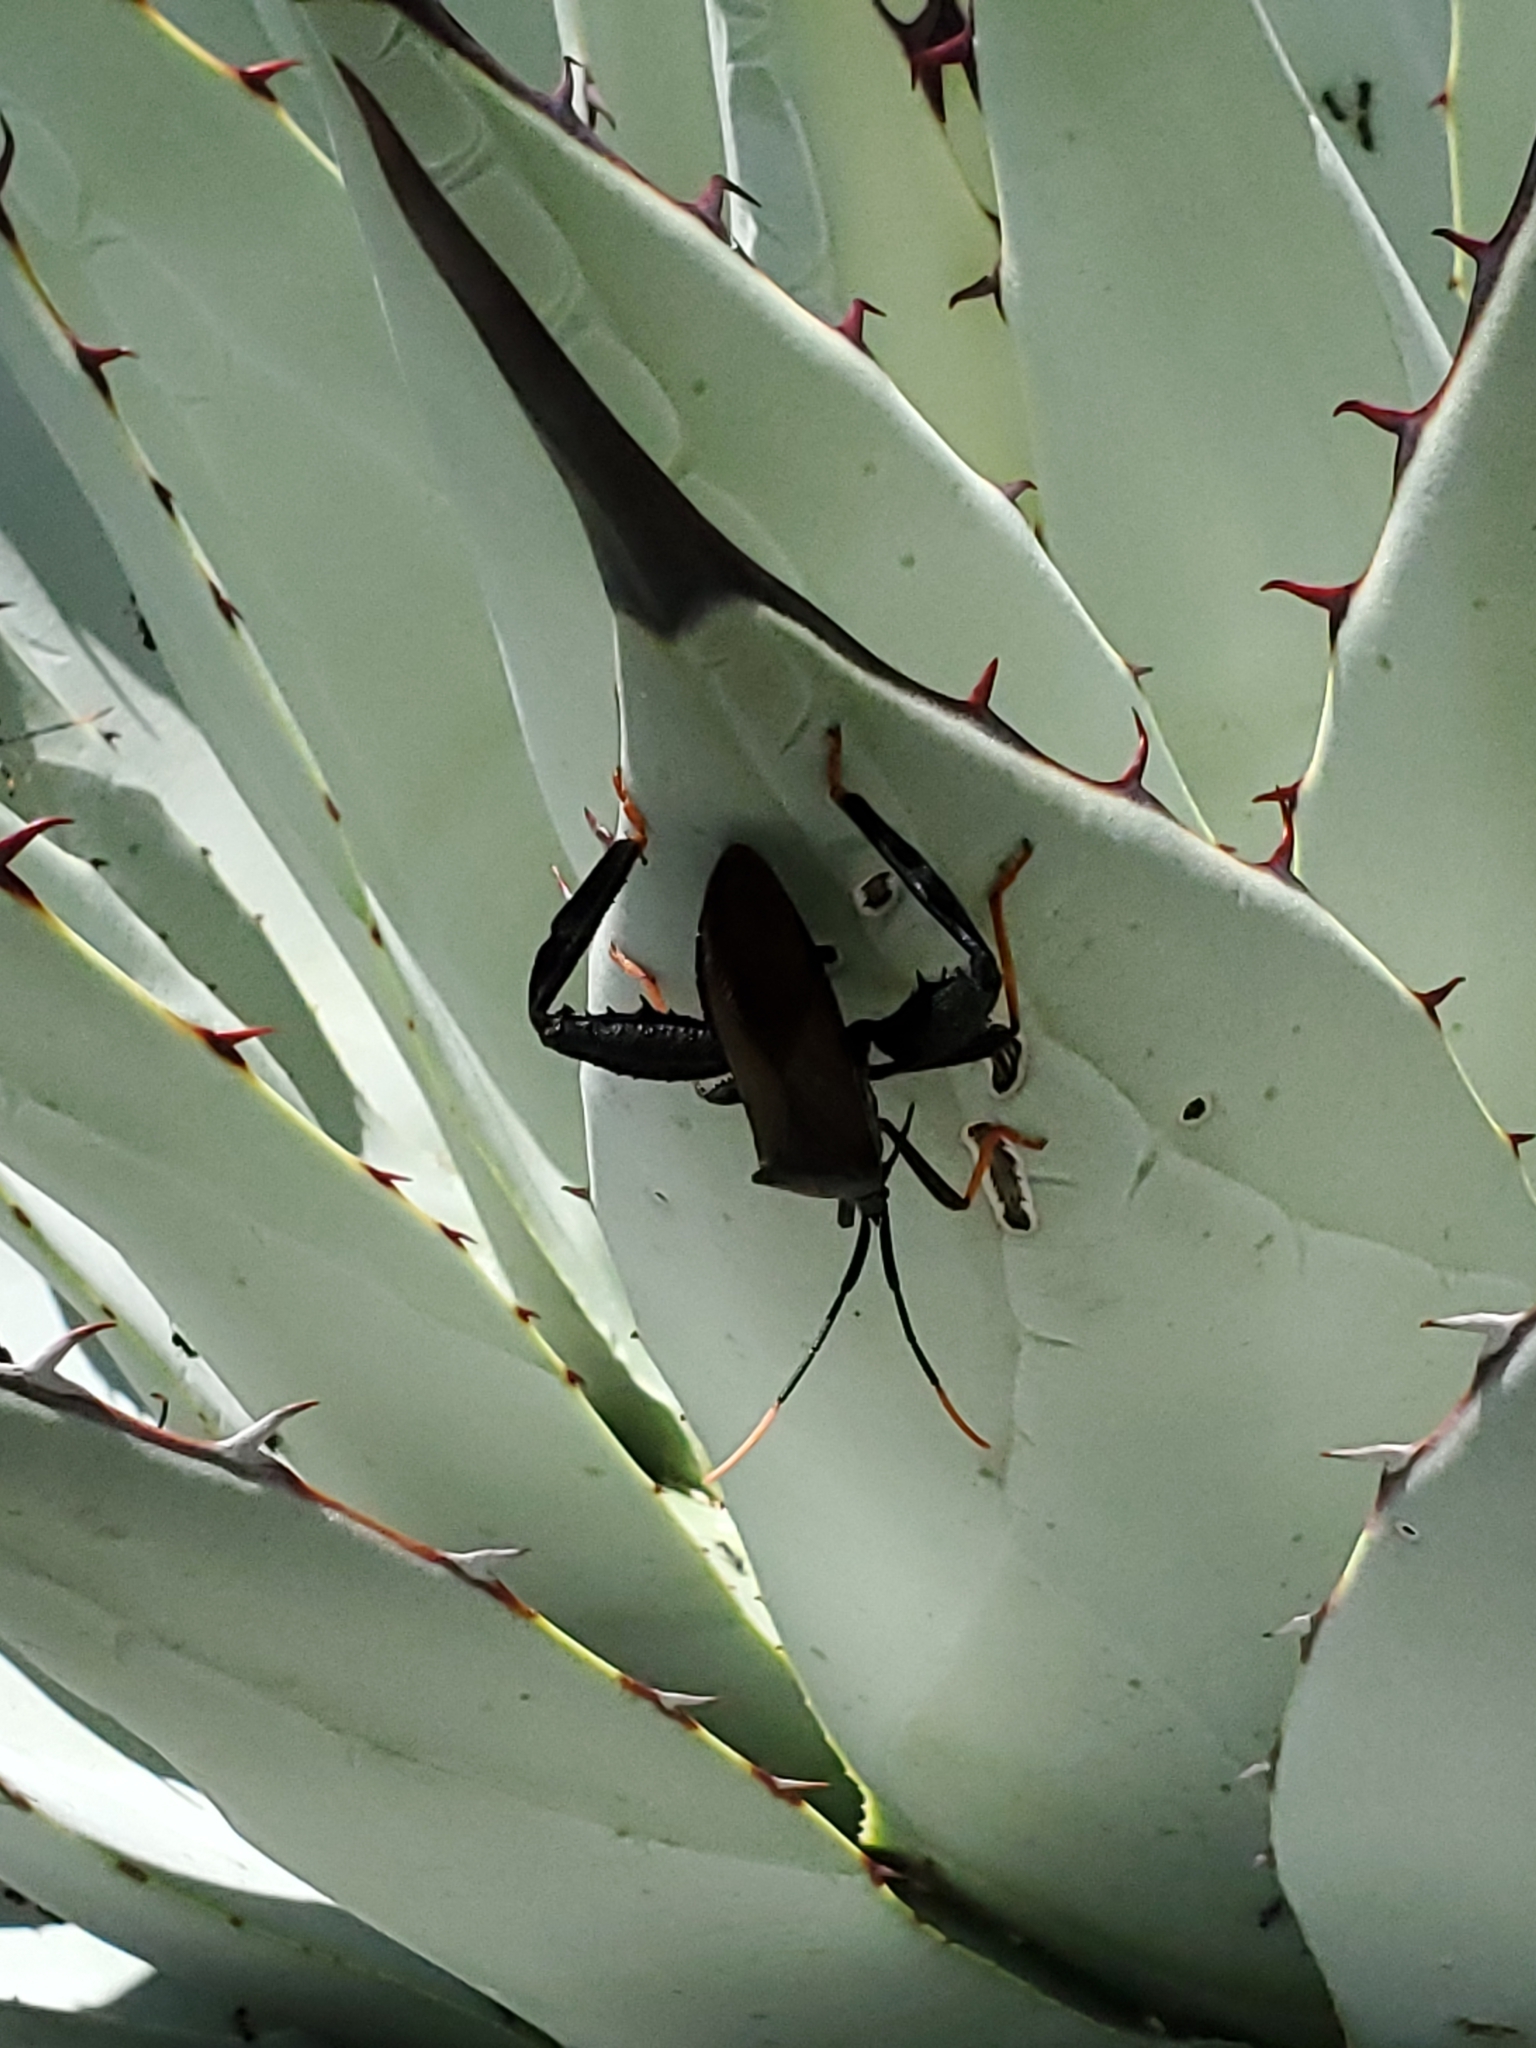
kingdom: Animalia
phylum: Arthropoda
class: Insecta
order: Hemiptera
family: Coreidae
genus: Acanthocephala
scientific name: Acanthocephala thomasi
